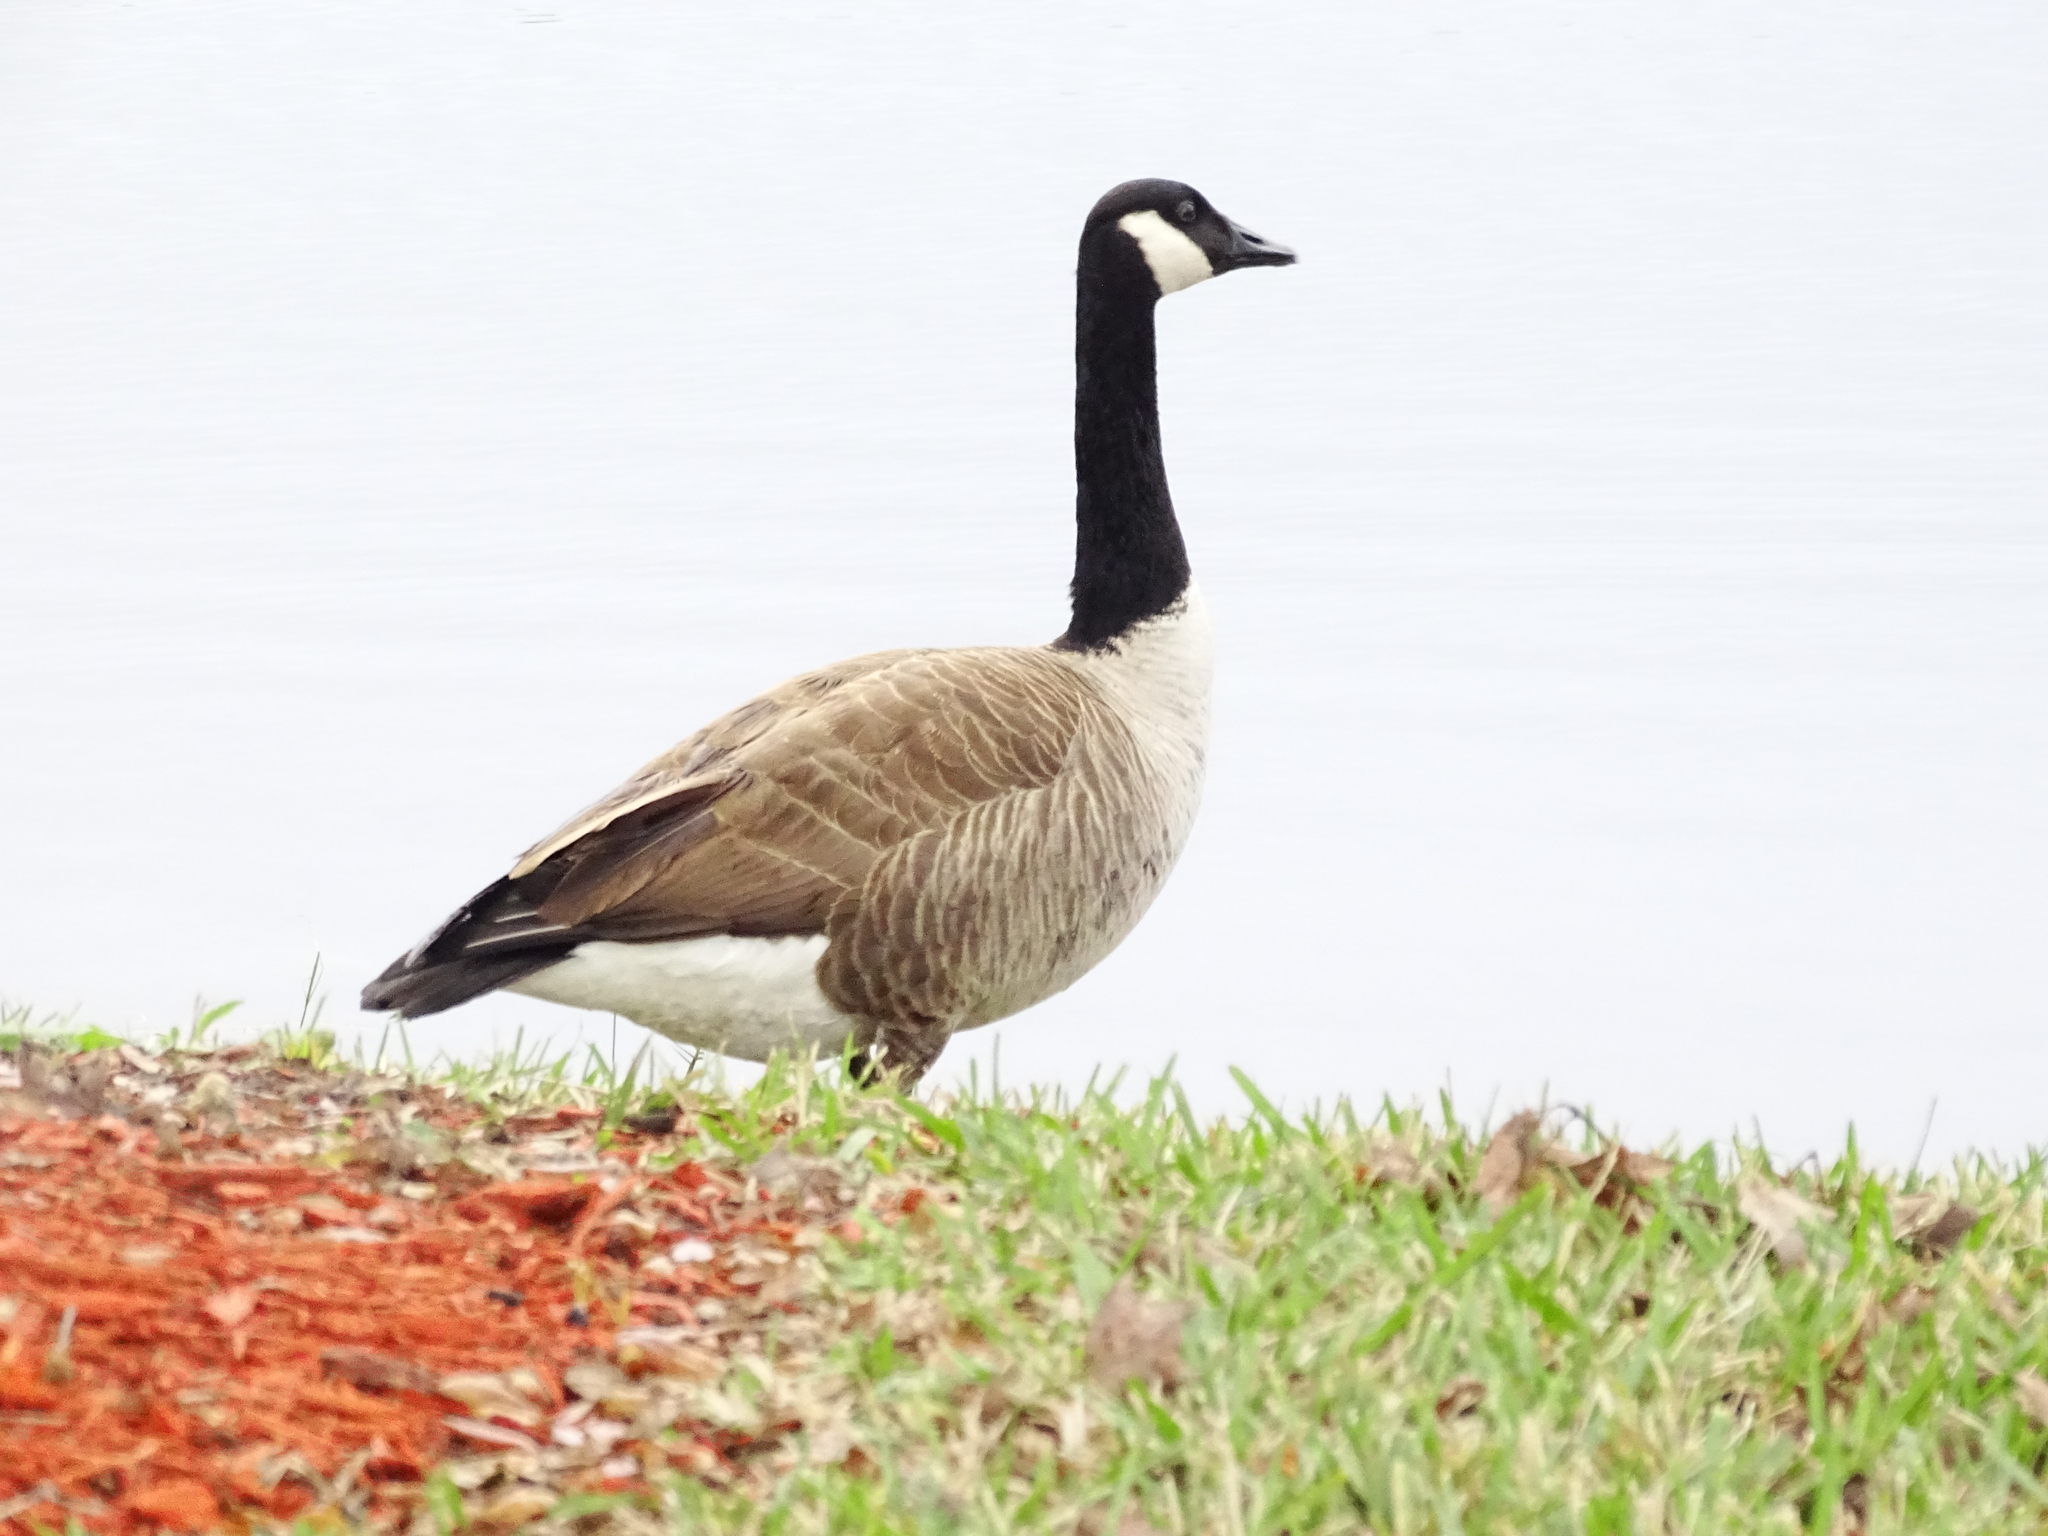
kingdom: Animalia
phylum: Chordata
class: Aves
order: Anseriformes
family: Anatidae
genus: Branta
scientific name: Branta canadensis
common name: Canada goose
